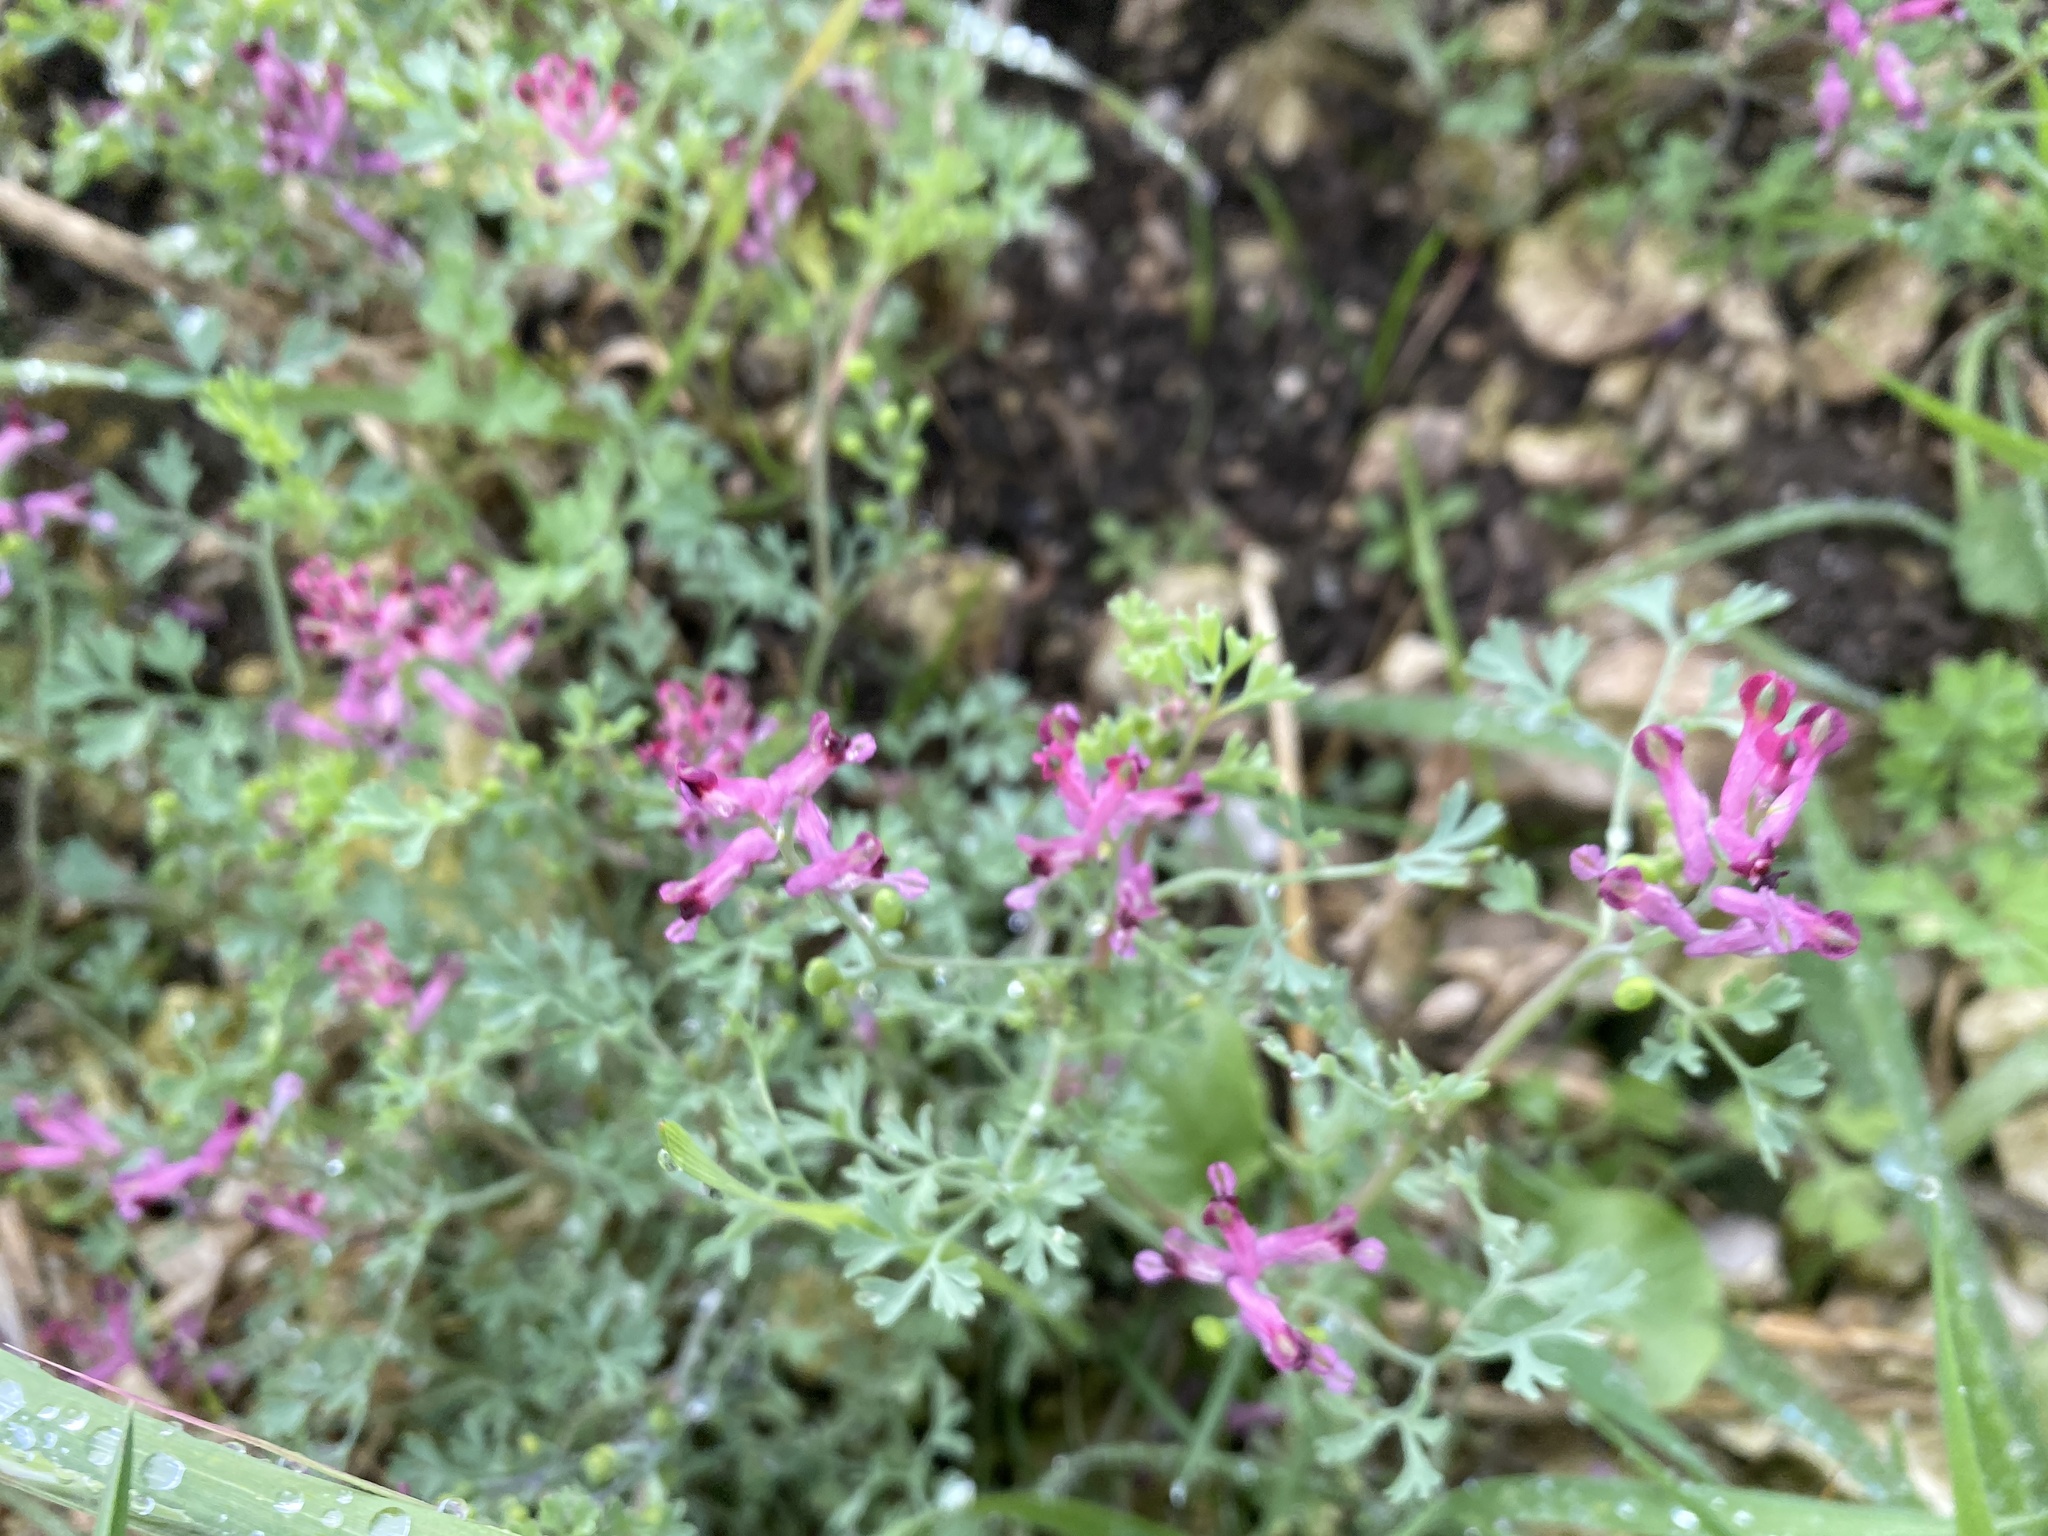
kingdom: Plantae
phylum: Tracheophyta
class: Magnoliopsida
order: Ranunculales
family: Papaveraceae
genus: Fumaria
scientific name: Fumaria officinalis
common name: Common fumitory
